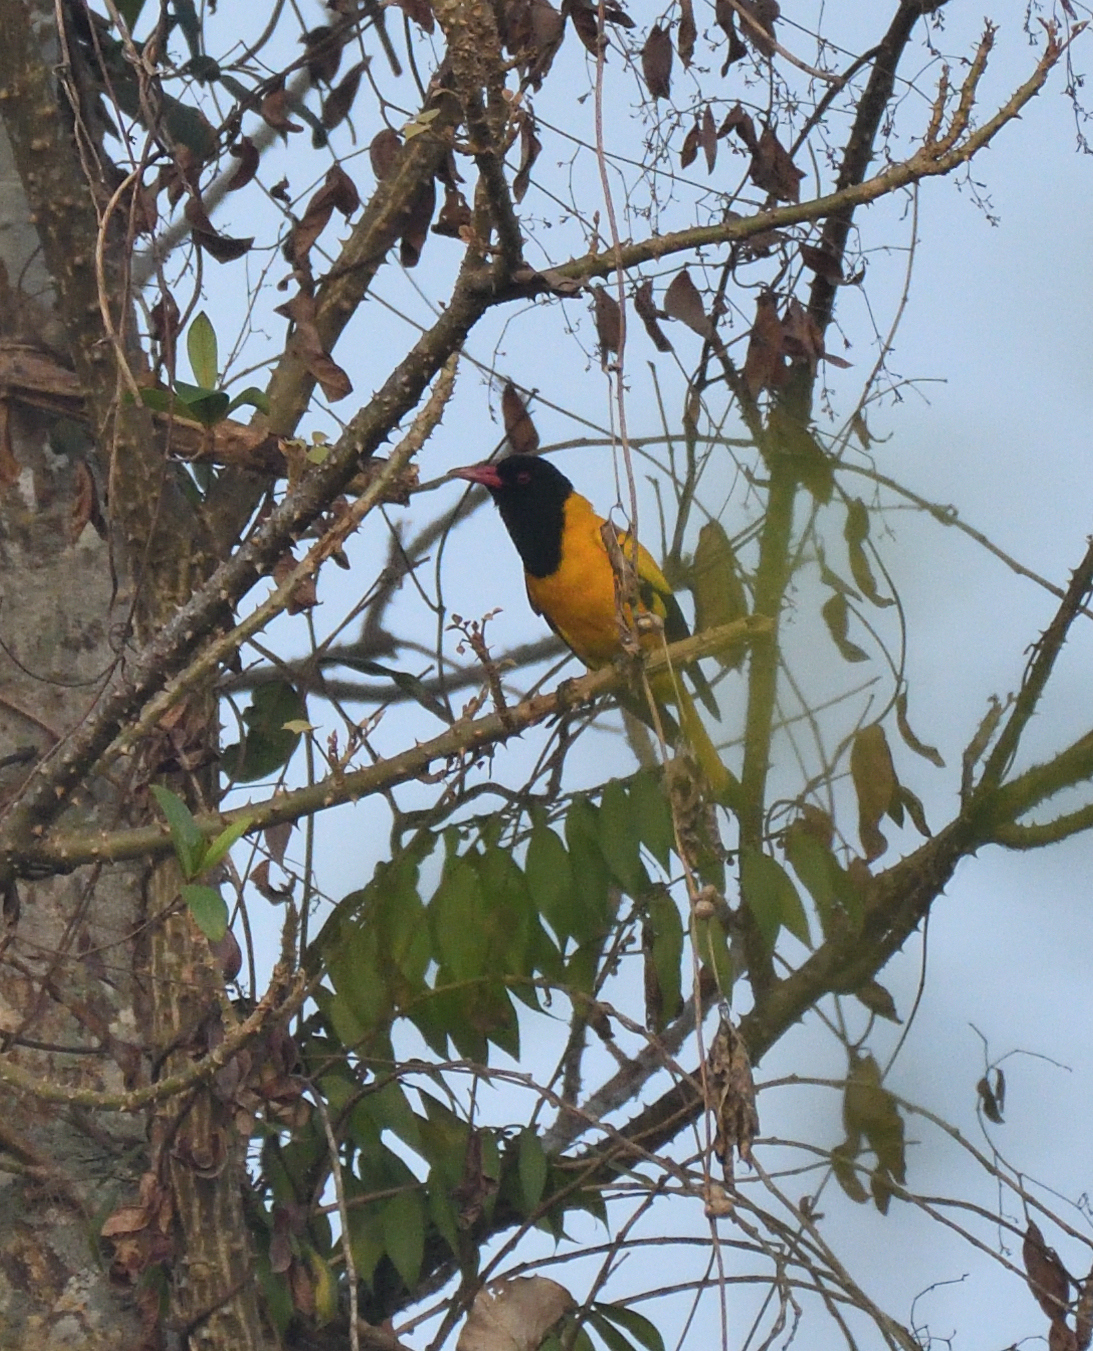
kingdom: Animalia
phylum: Chordata
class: Aves
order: Passeriformes
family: Oriolidae
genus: Oriolus
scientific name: Oriolus xanthornus
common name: Black-hooded oriole
